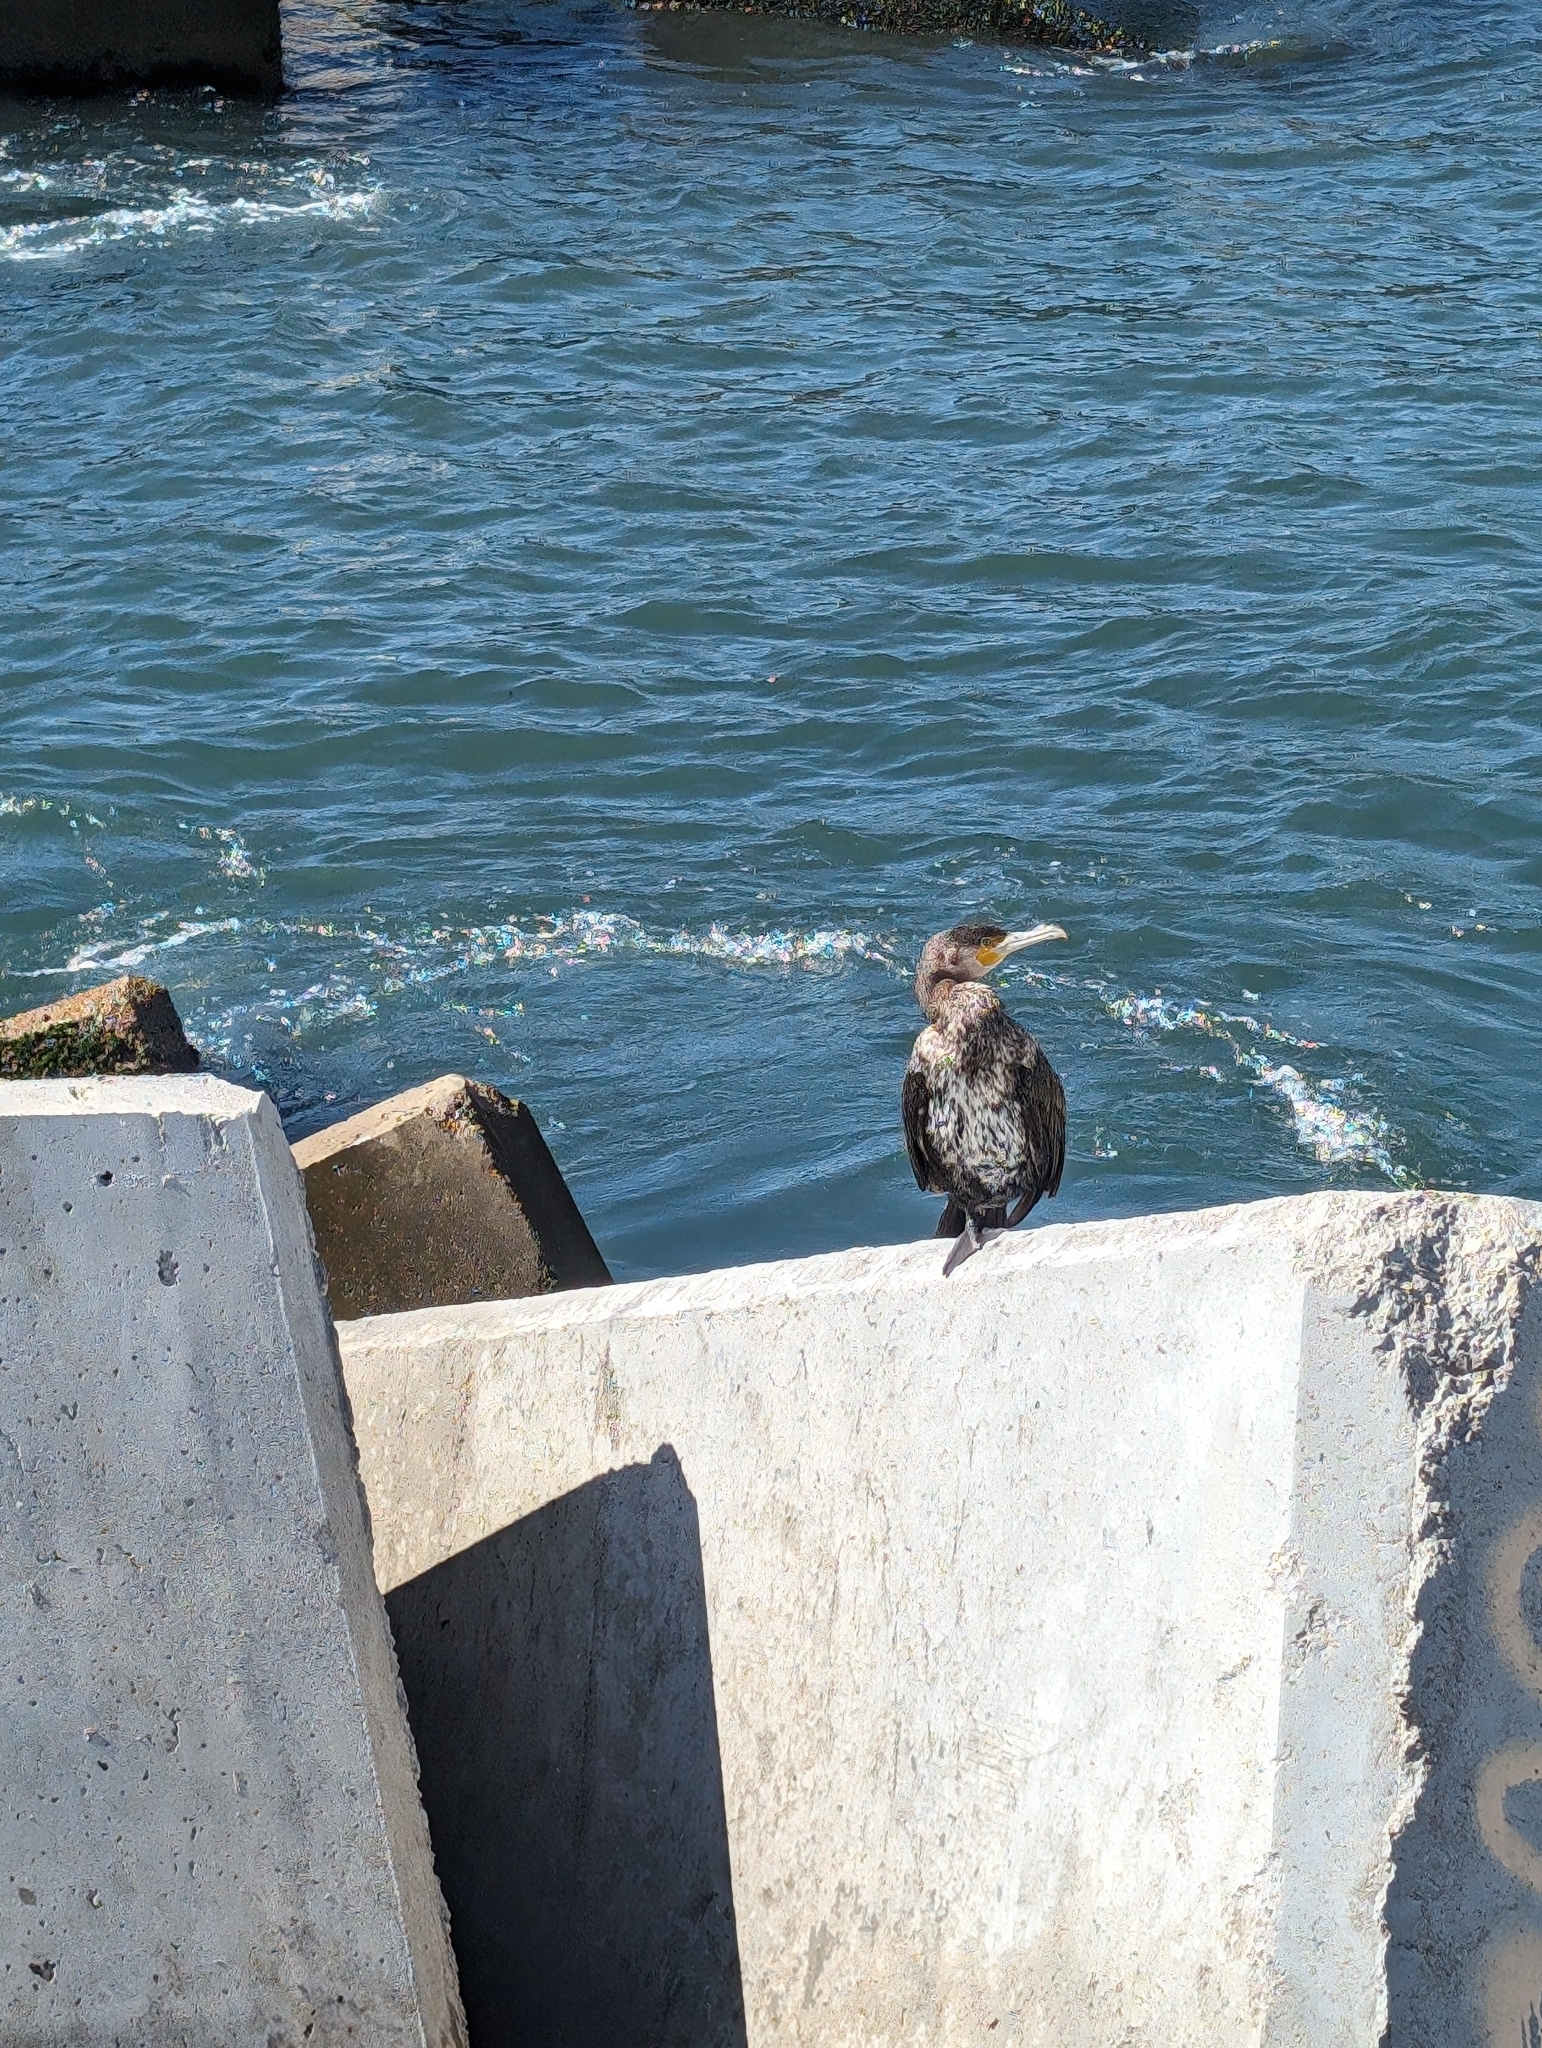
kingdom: Animalia
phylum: Chordata
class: Aves
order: Suliformes
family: Phalacrocoracidae
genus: Phalacrocorax
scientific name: Phalacrocorax carbo
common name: Great cormorant
